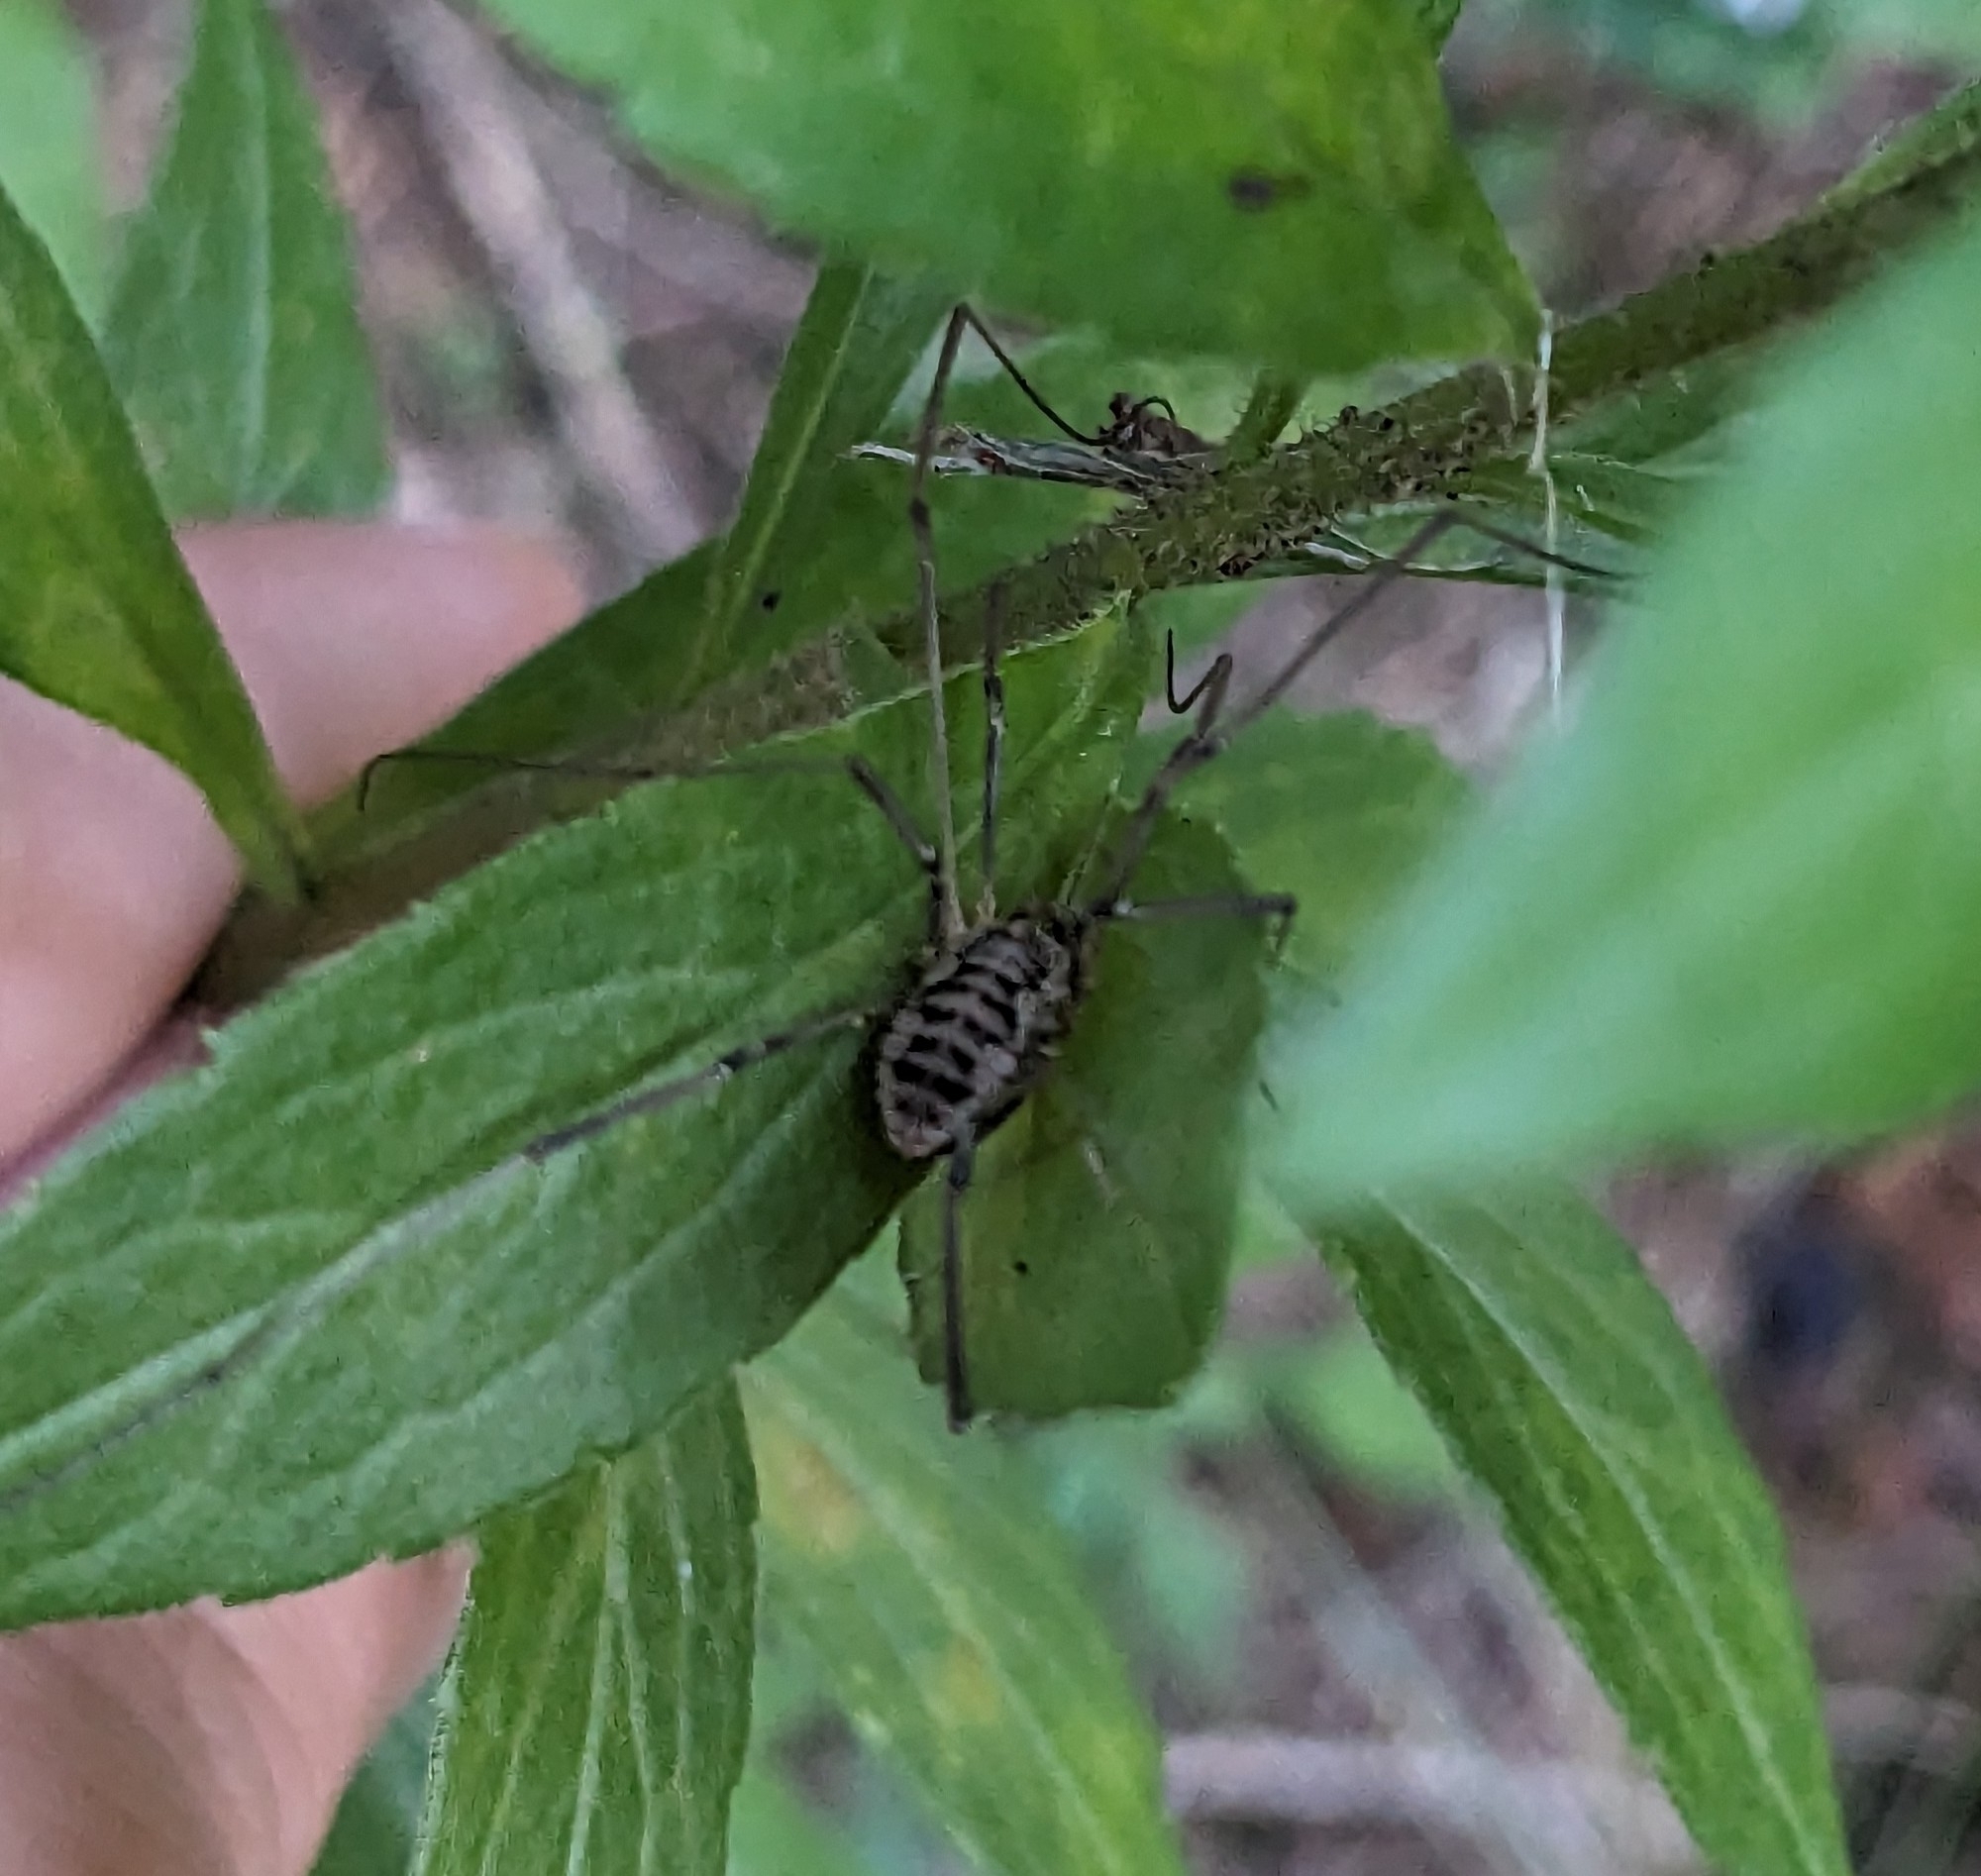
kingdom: Animalia
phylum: Arthropoda
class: Arachnida
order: Opiliones
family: Phalangiidae
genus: Phalangium
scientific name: Phalangium opilio
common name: Daddy longleg
